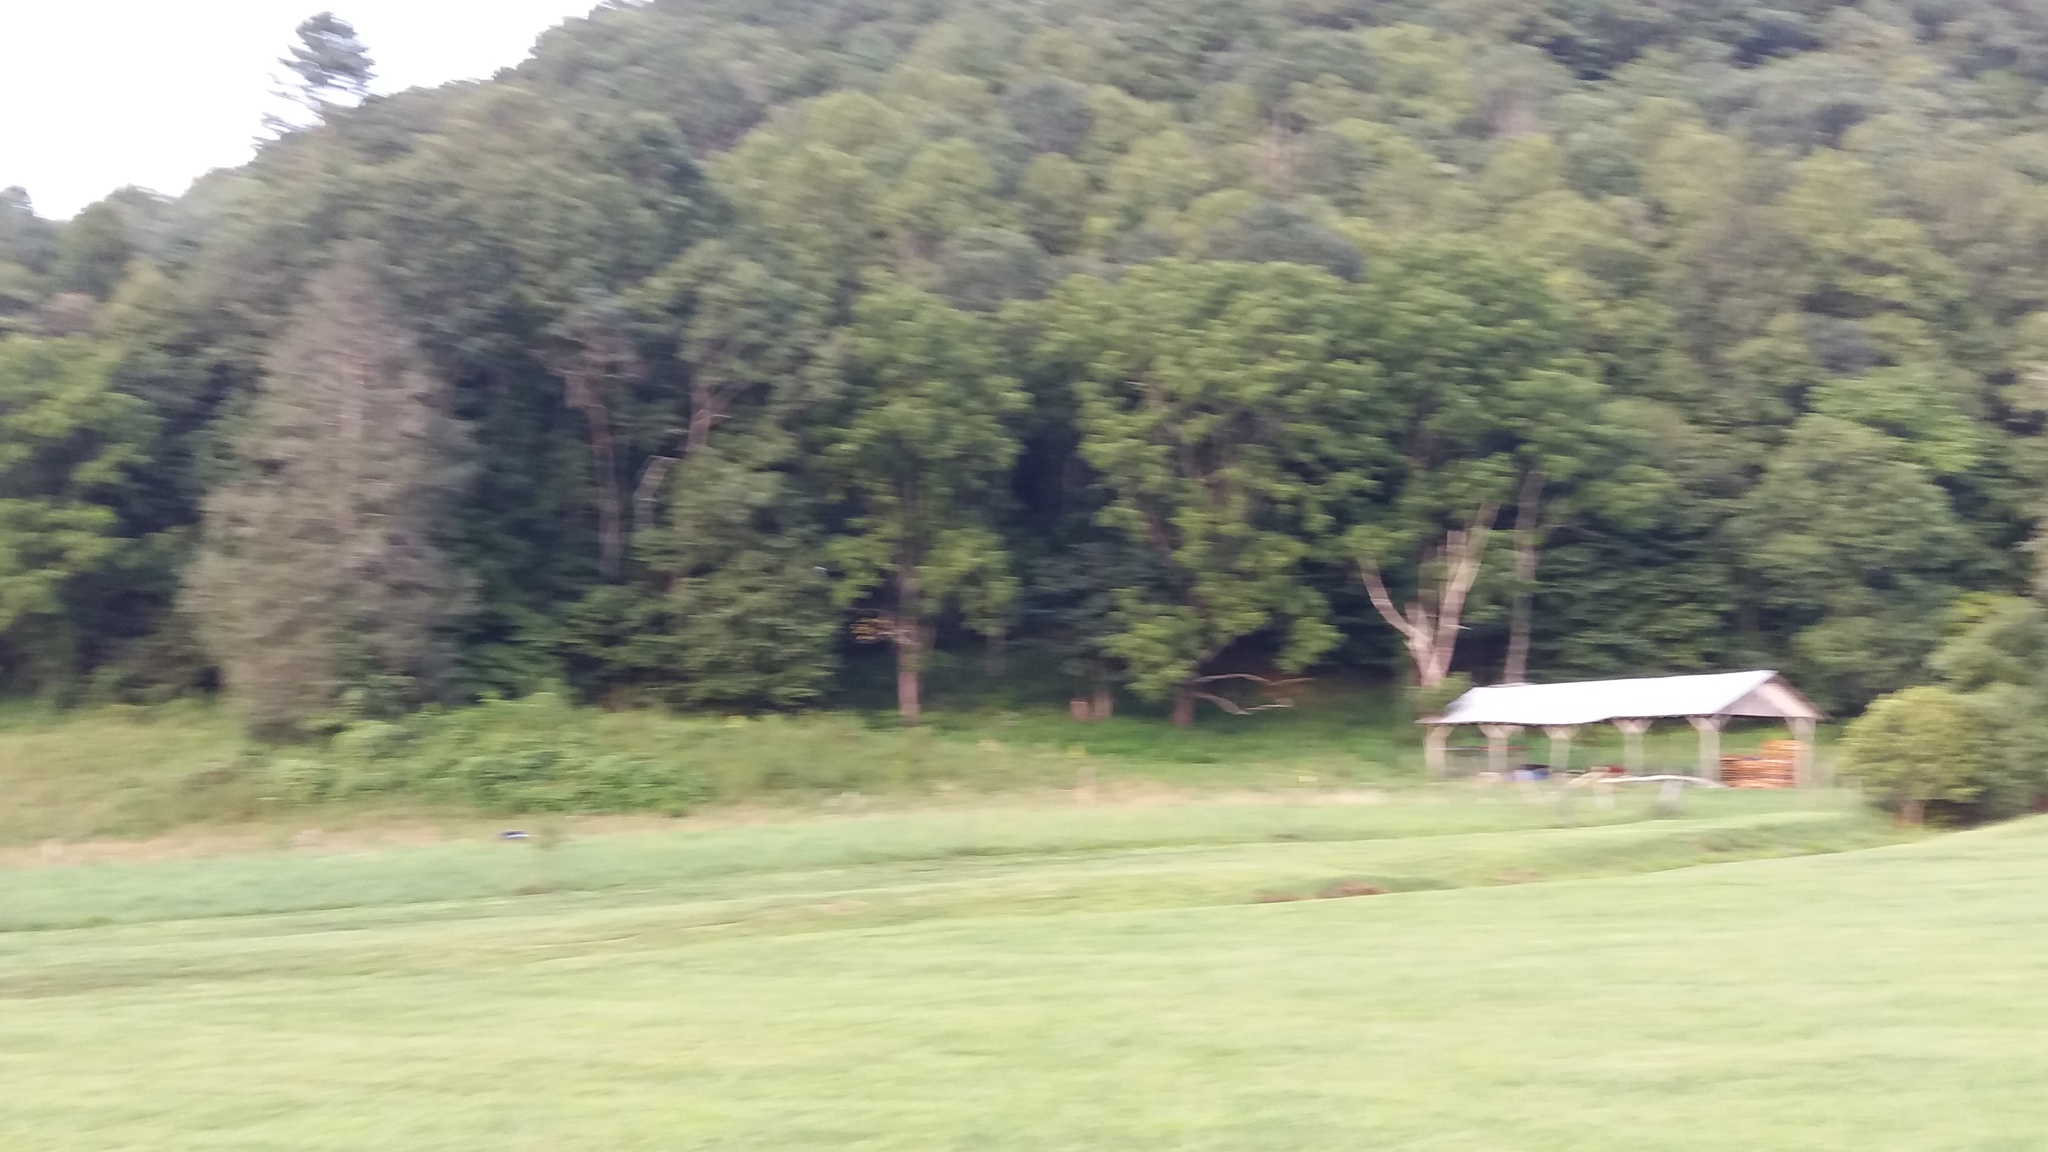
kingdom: Animalia
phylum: Chordata
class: Aves
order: Coraciiformes
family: Alcedinidae
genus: Megaceryle
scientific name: Megaceryle alcyon
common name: Belted kingfisher
